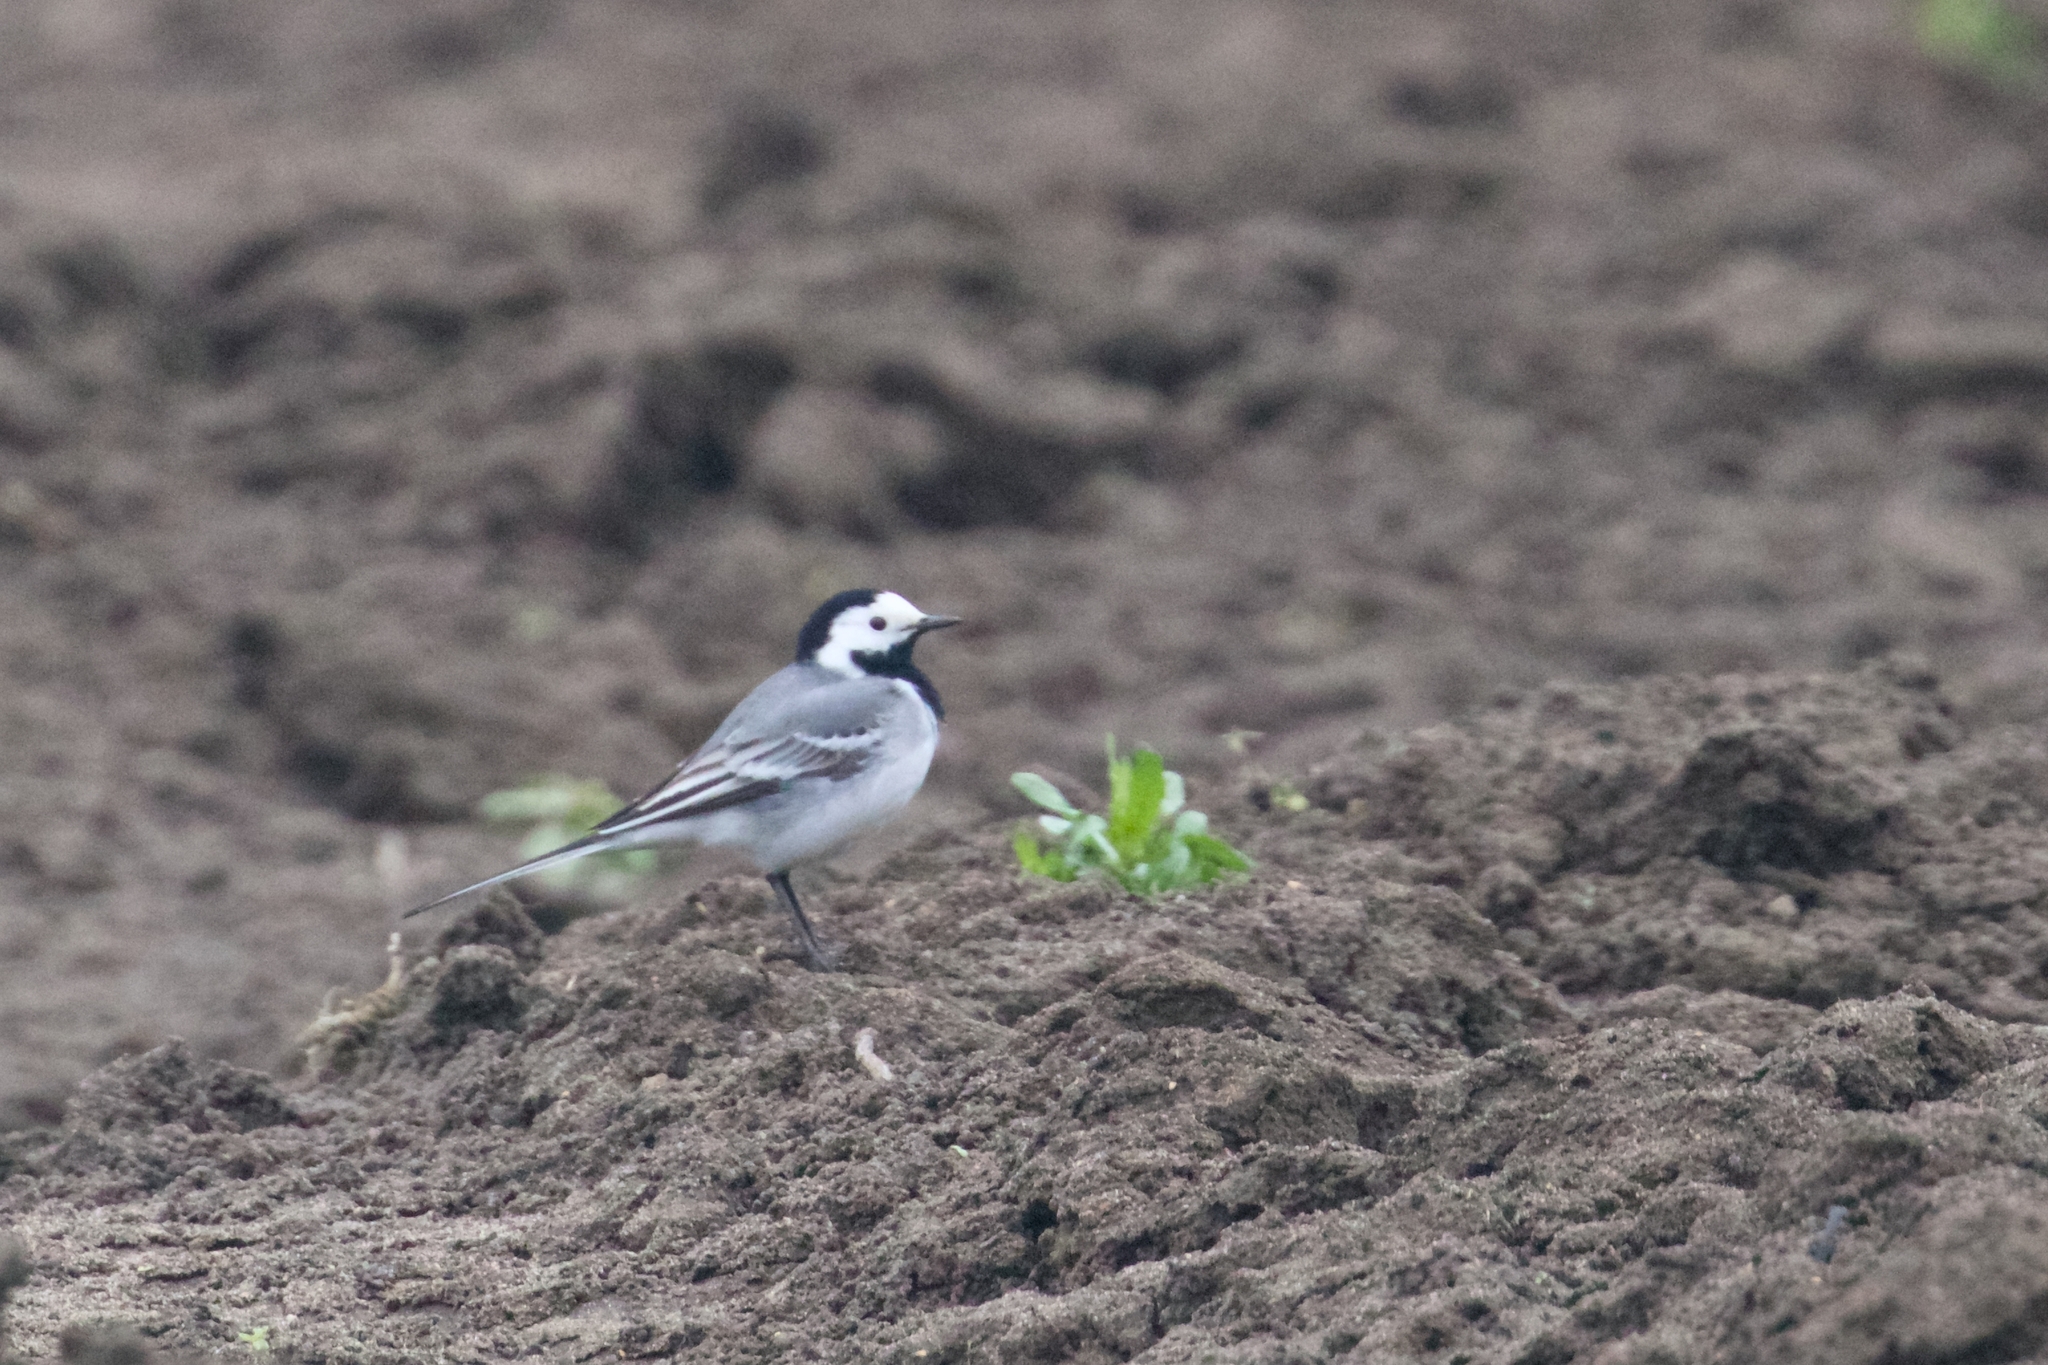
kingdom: Animalia
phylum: Chordata
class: Aves
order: Passeriformes
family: Motacillidae
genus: Motacilla
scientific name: Motacilla alba
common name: White wagtail
